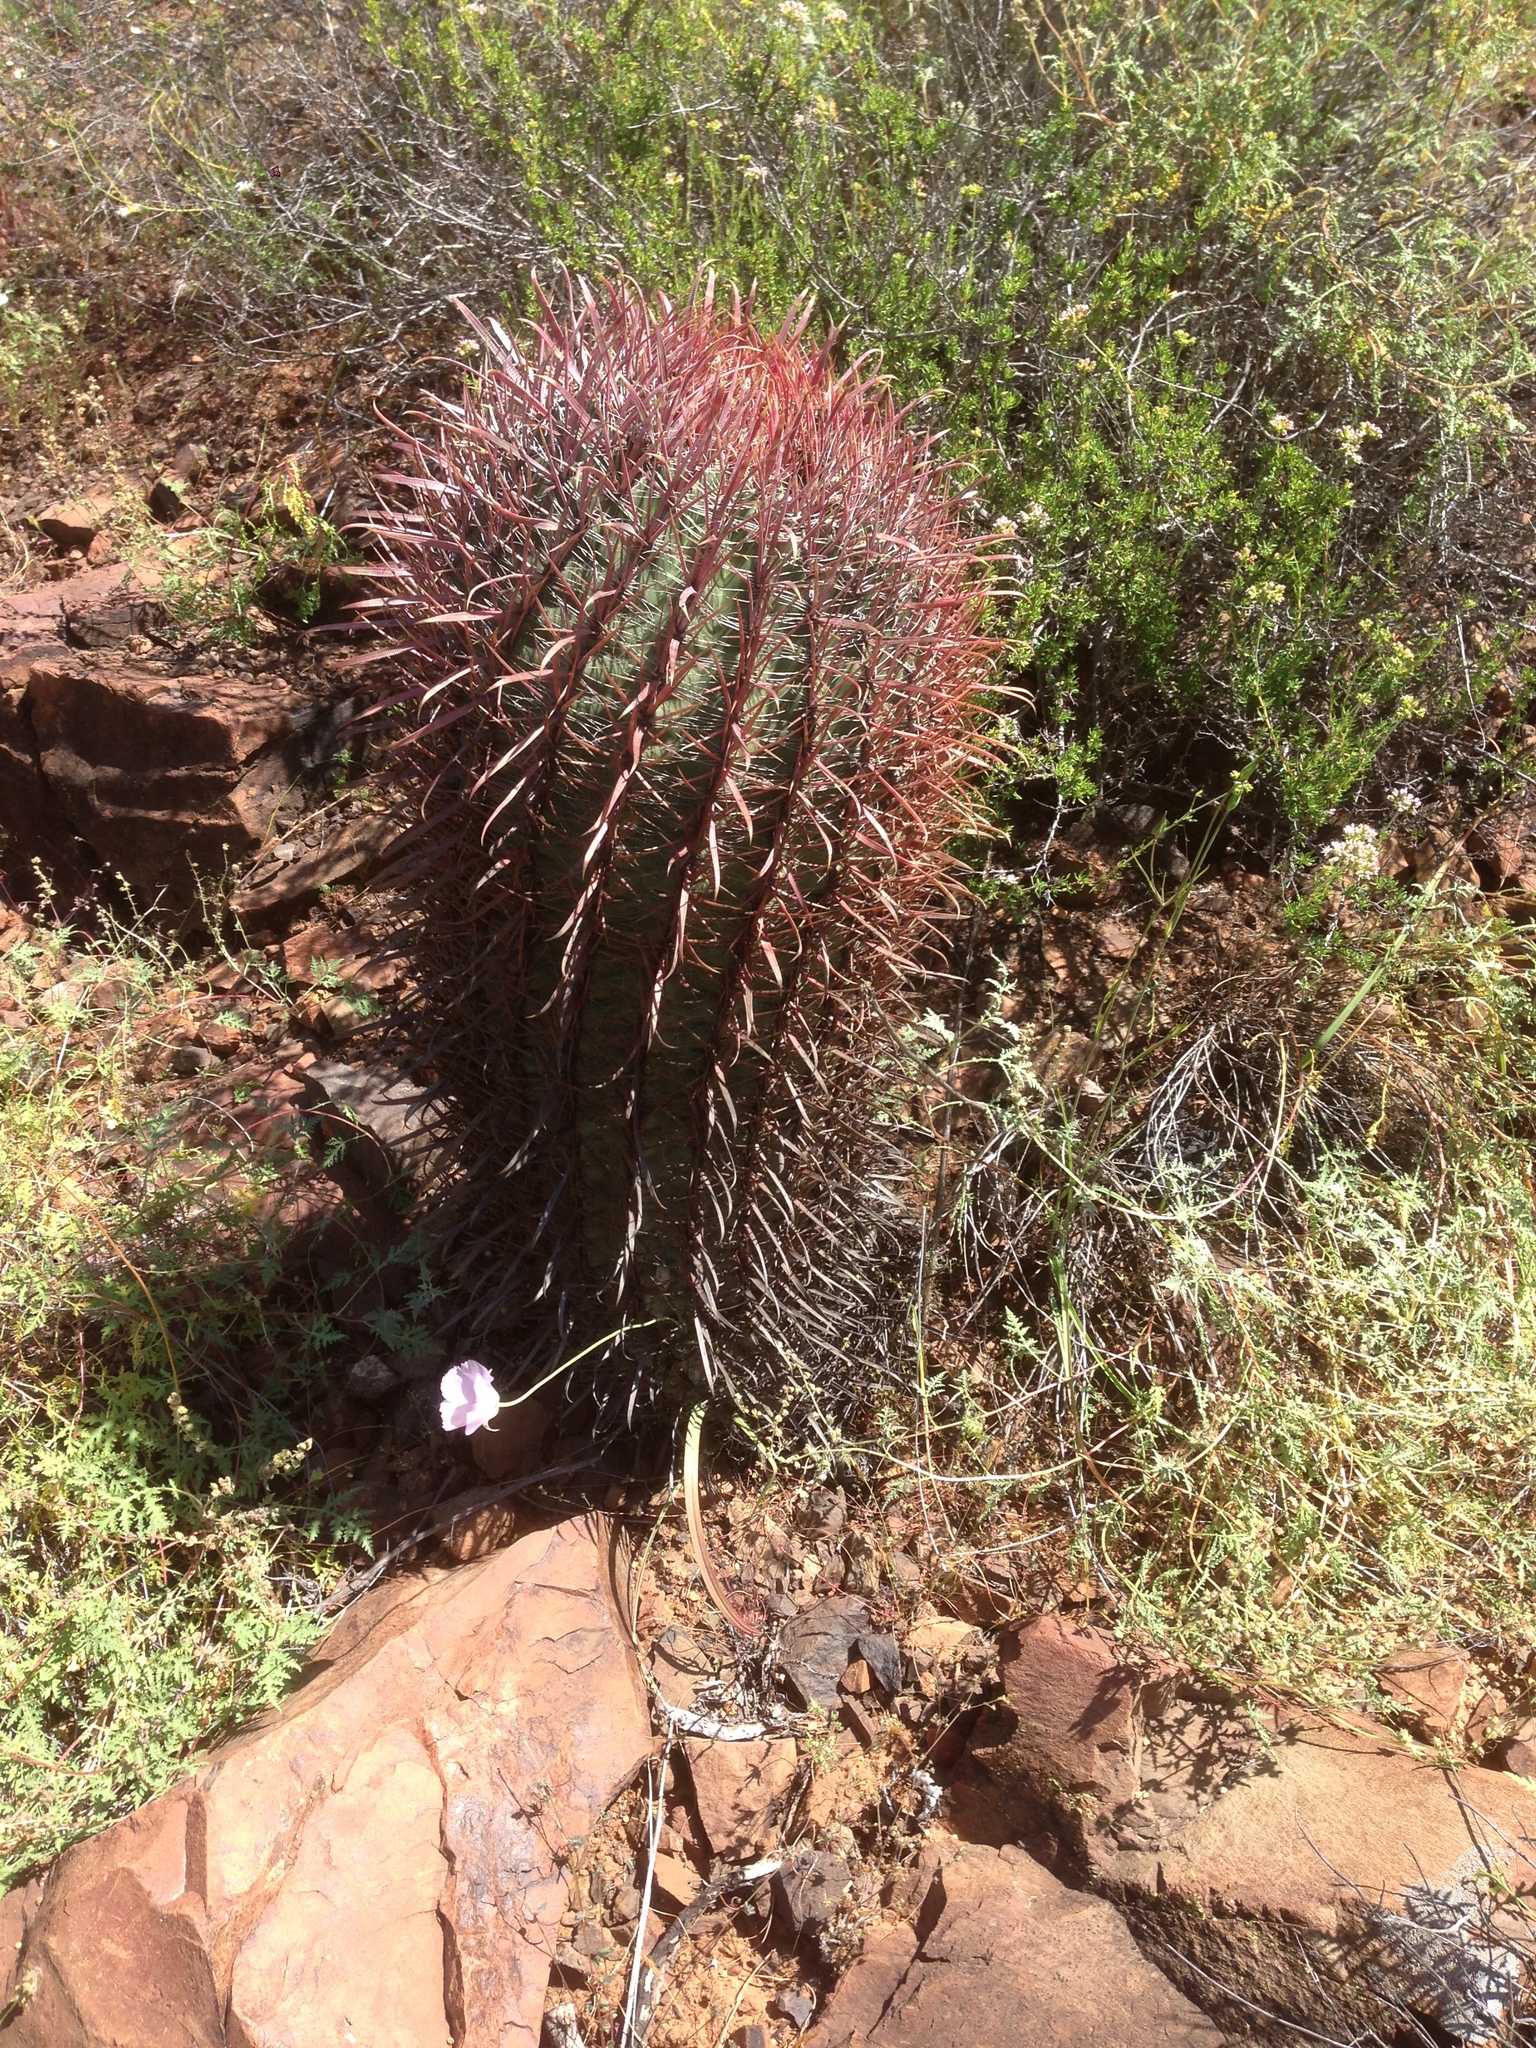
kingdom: Plantae
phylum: Tracheophyta
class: Magnoliopsida
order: Caryophyllales
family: Cactaceae
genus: Ferocactus
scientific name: Ferocactus gracilis
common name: Fire barrel cactus
